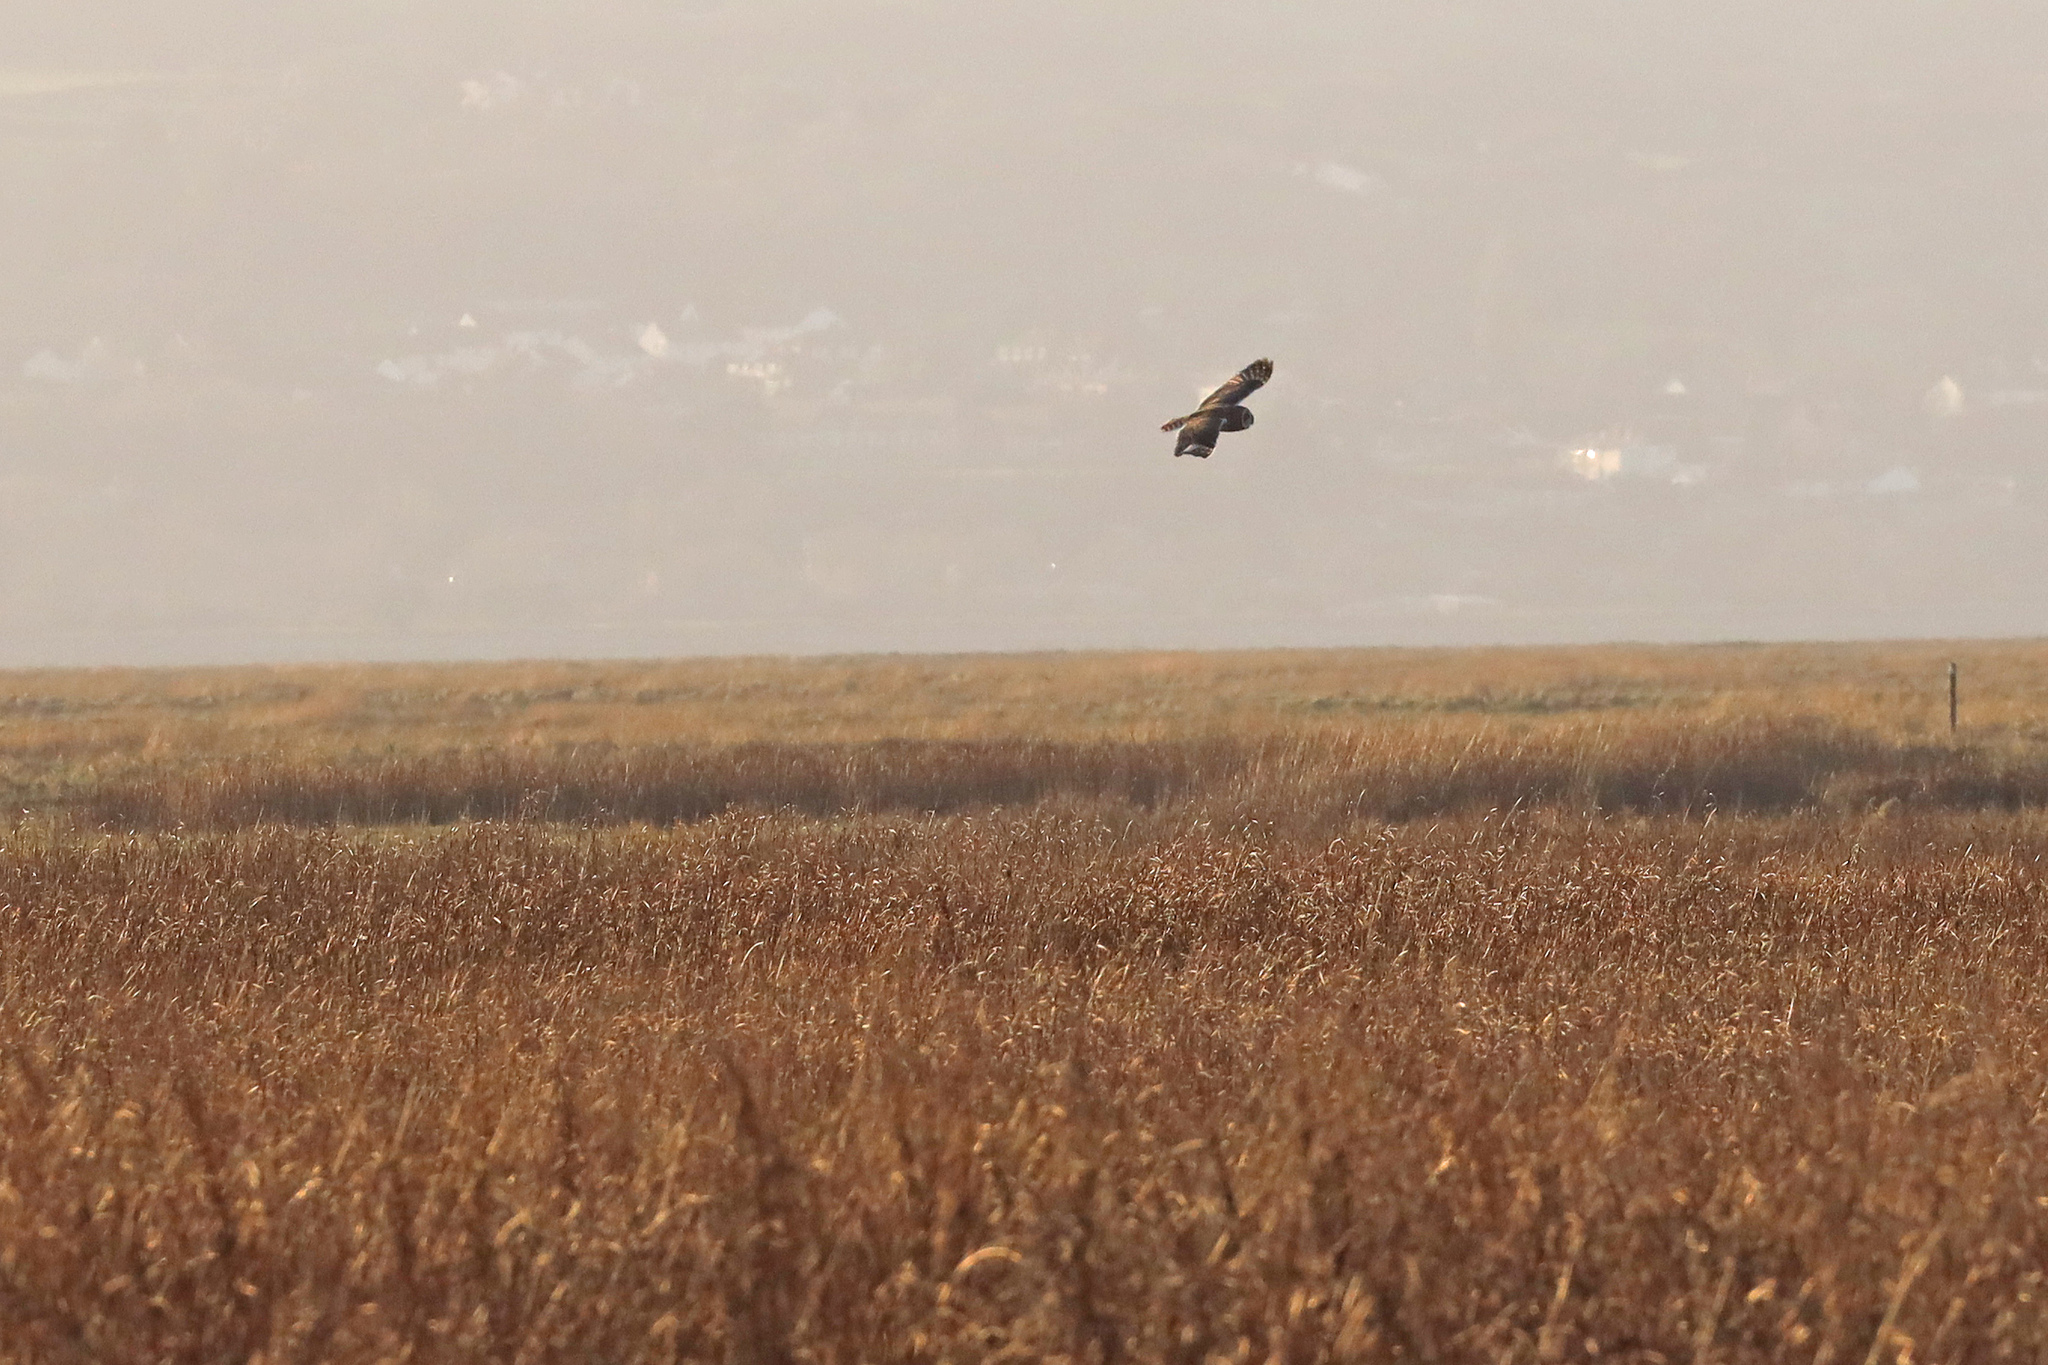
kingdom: Animalia
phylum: Chordata
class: Aves
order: Strigiformes
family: Strigidae
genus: Asio
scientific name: Asio flammeus
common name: Short-eared owl
